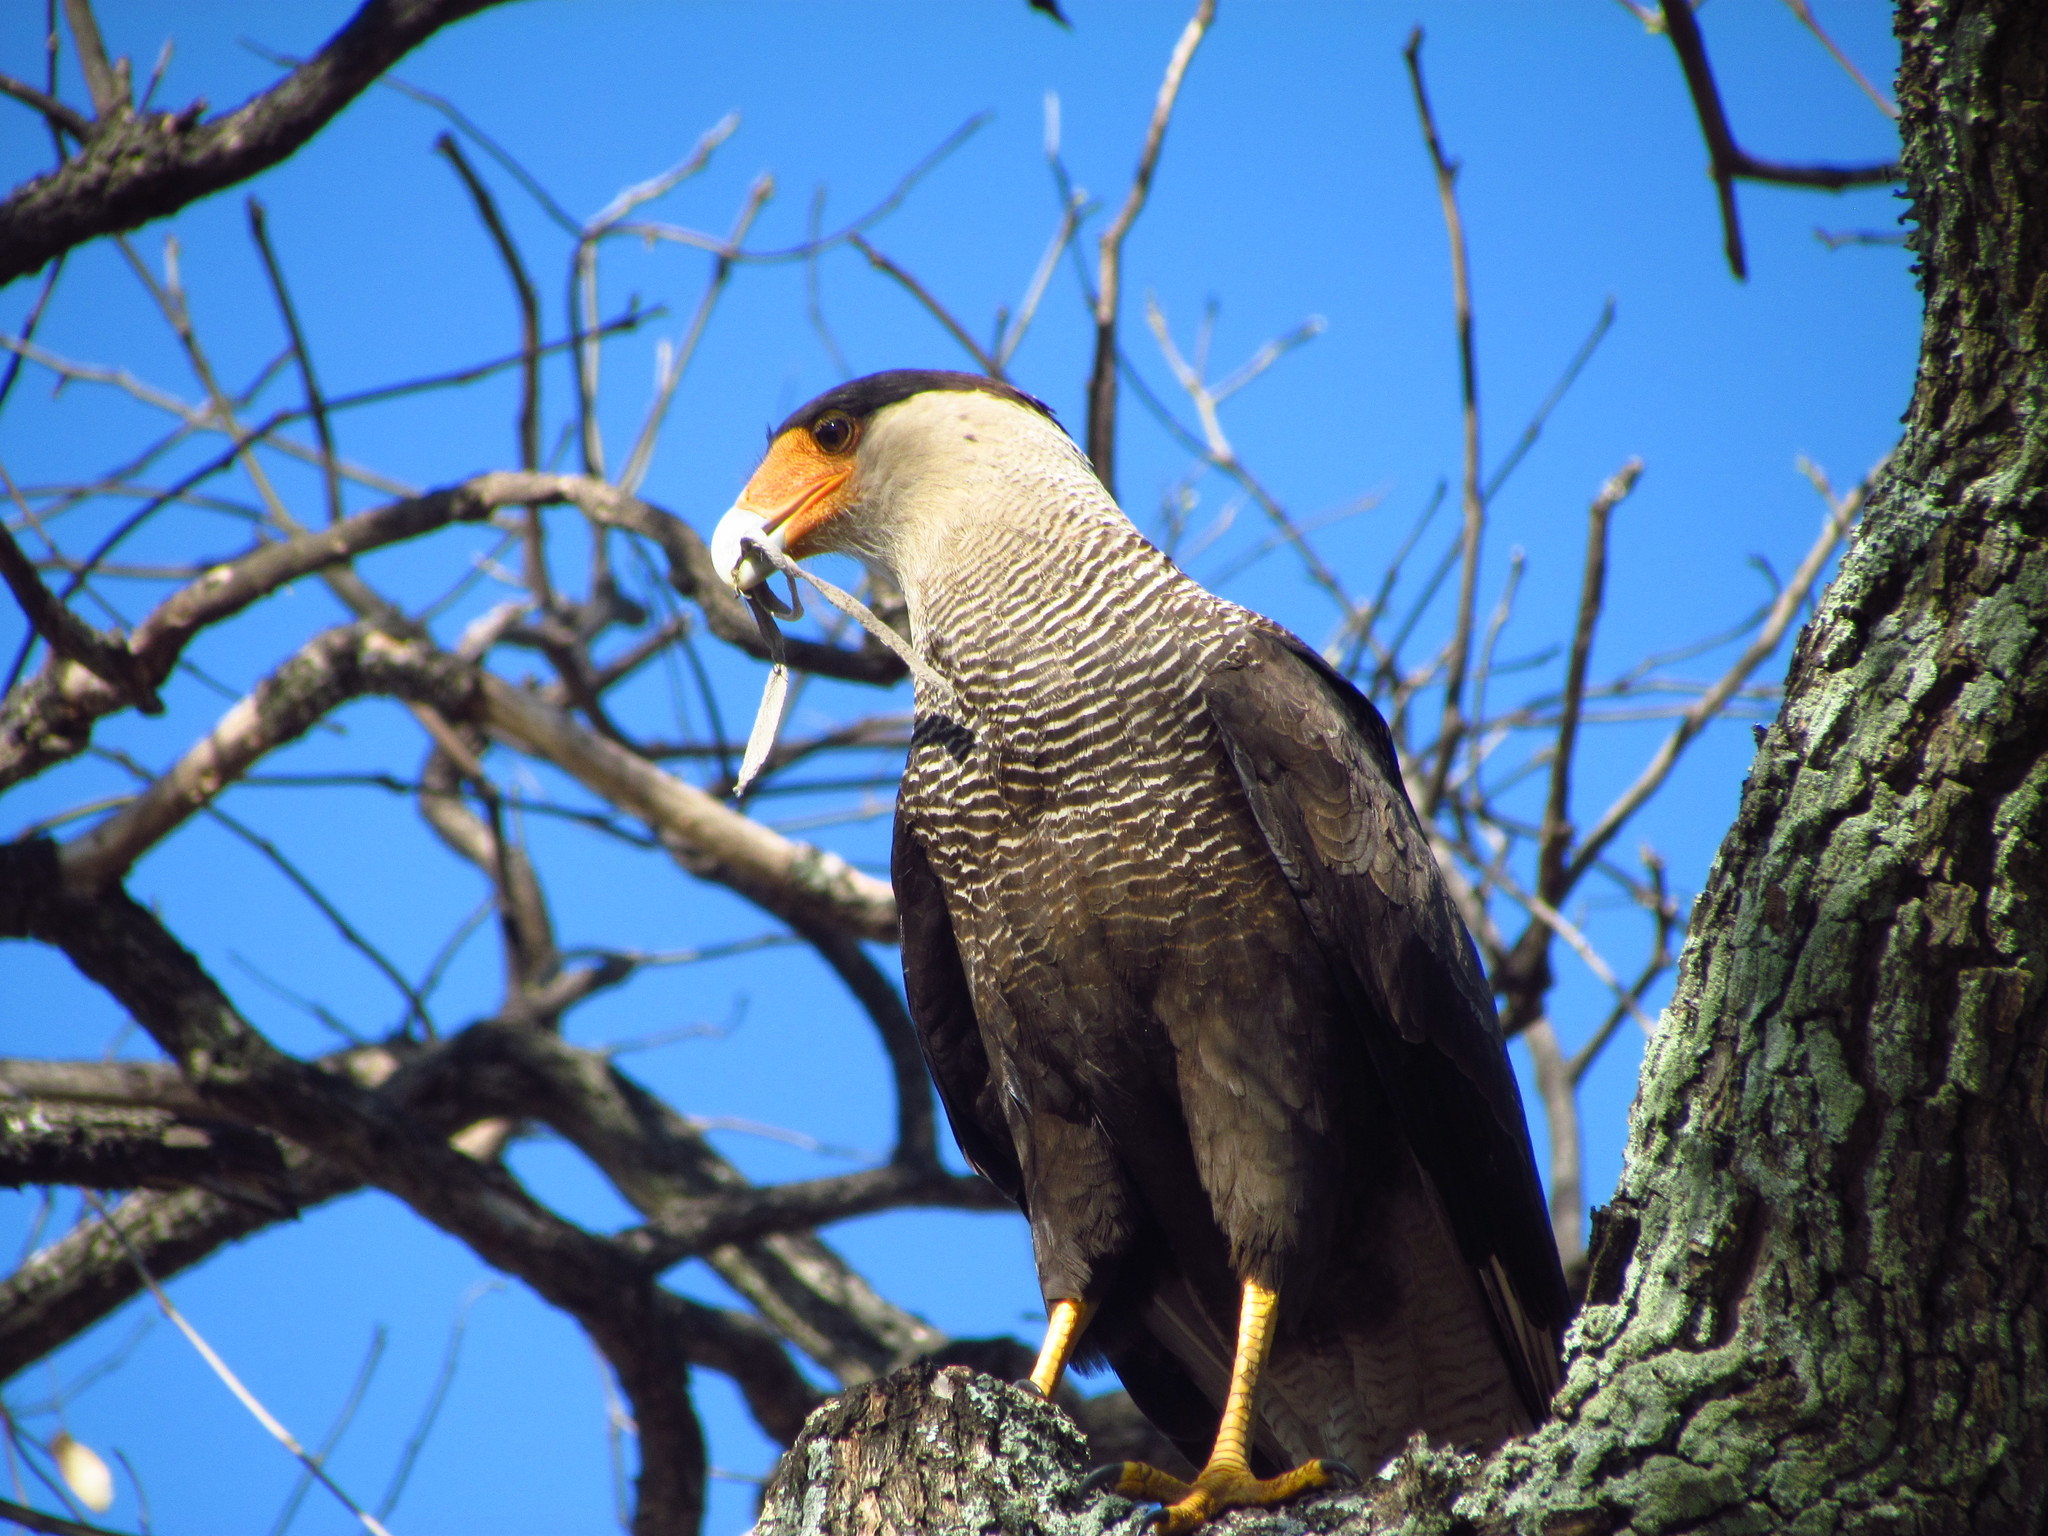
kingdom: Animalia
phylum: Chordata
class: Aves
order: Falconiformes
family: Falconidae
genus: Caracara
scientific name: Caracara plancus
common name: Southern caracara
